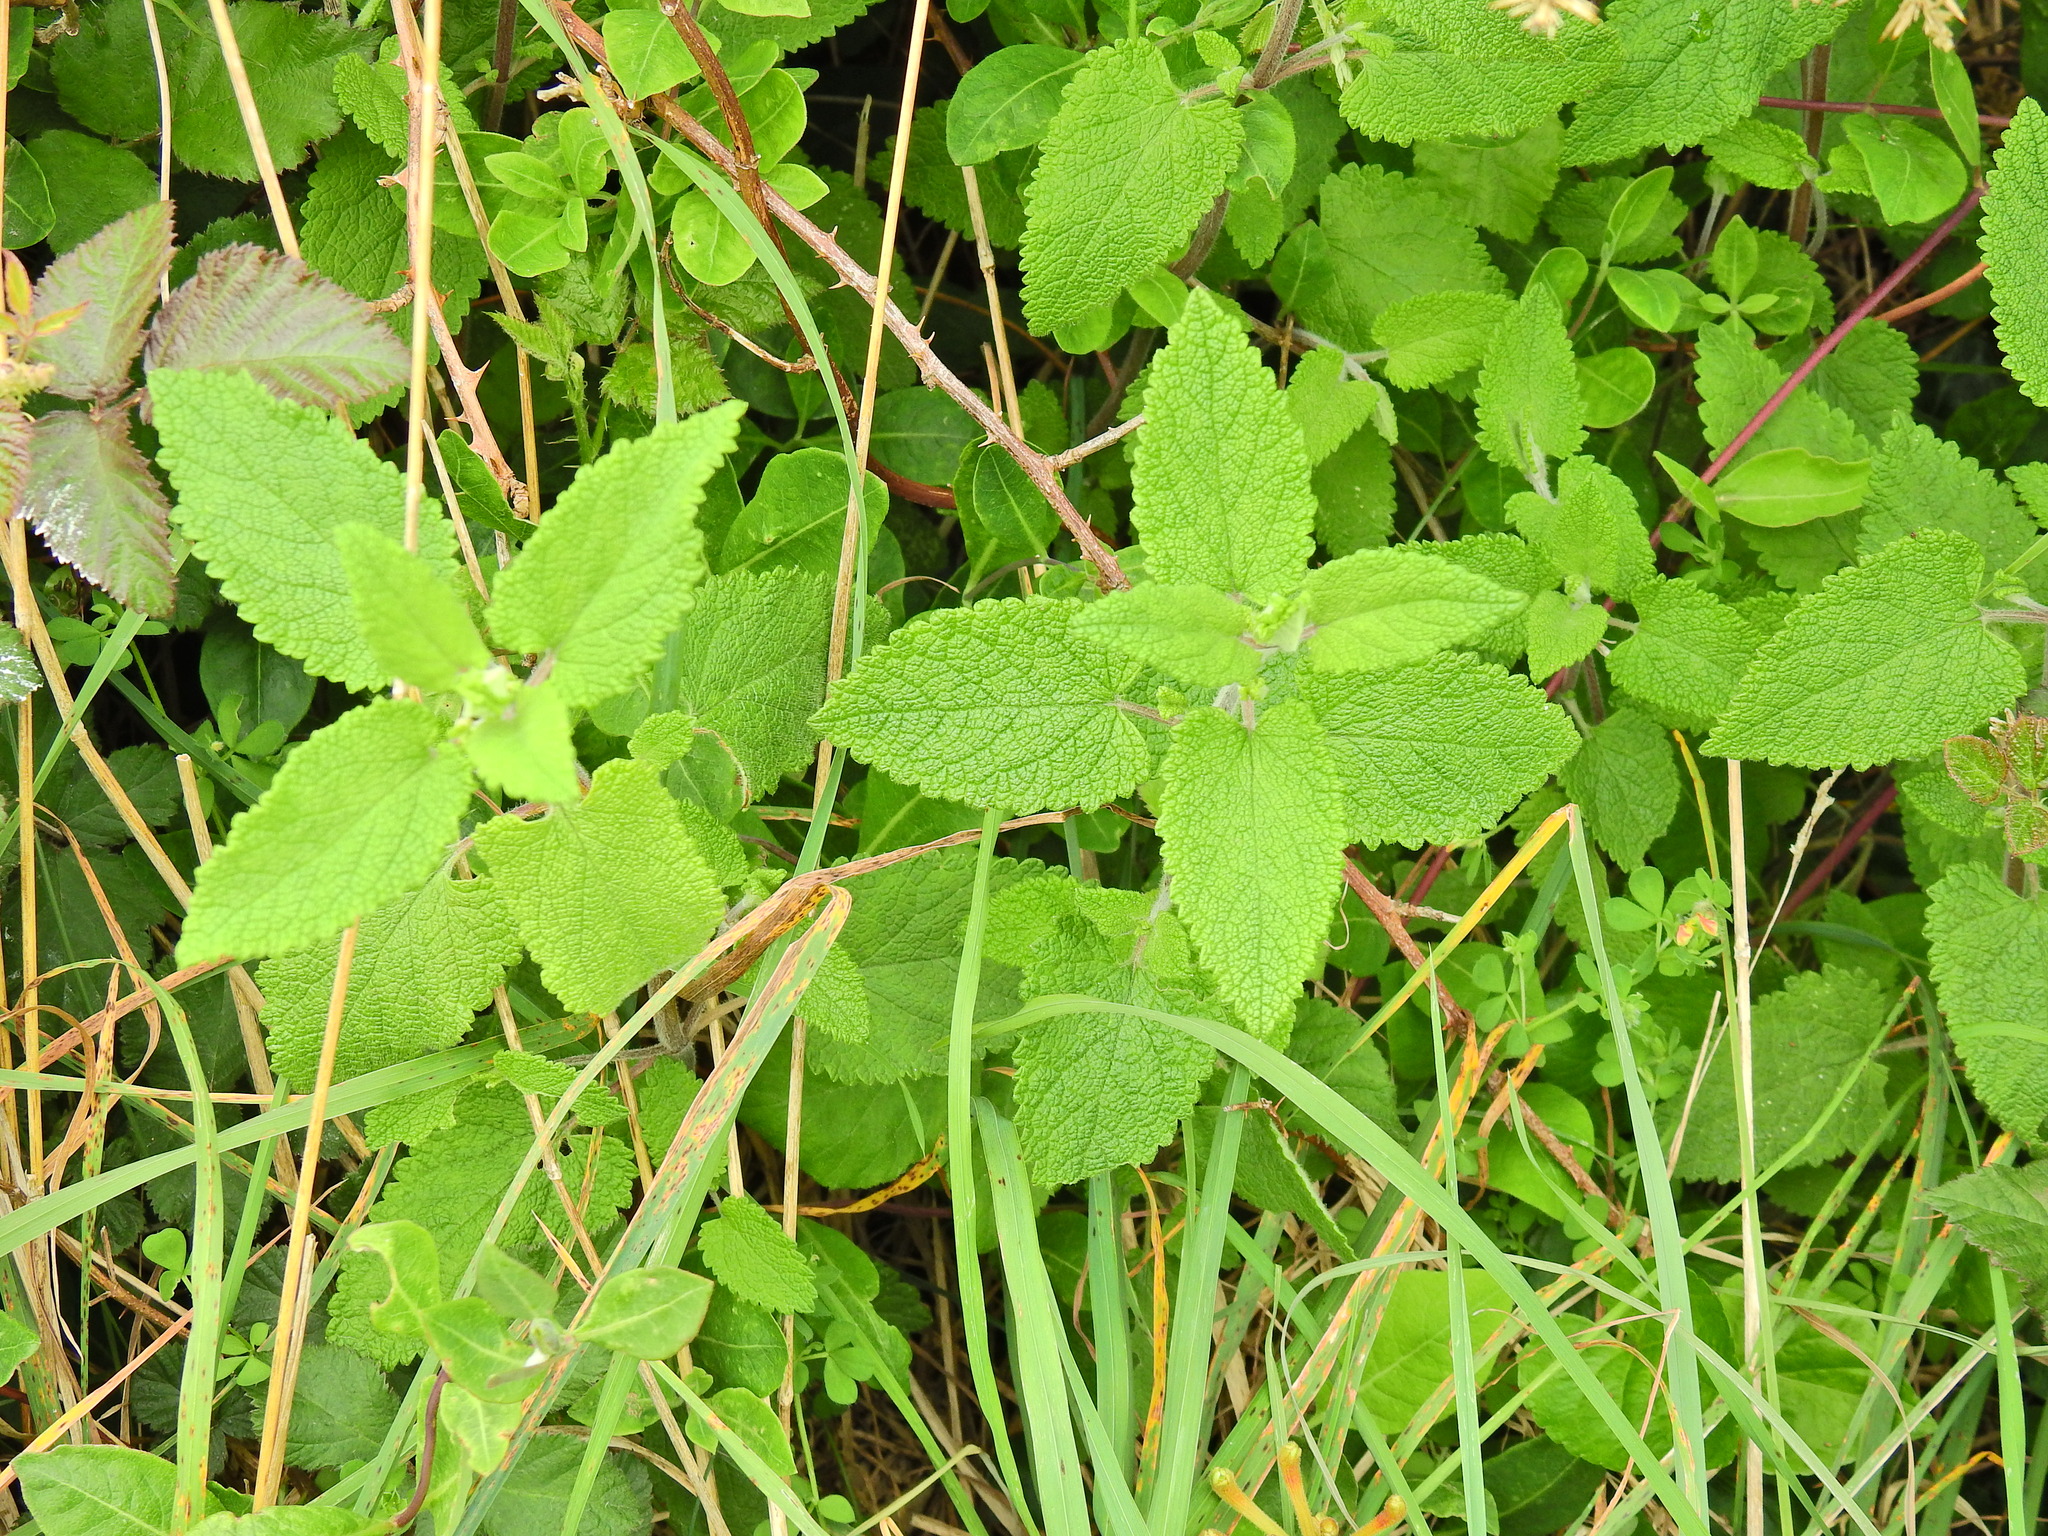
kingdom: Plantae
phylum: Tracheophyta
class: Magnoliopsida
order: Lamiales
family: Lamiaceae
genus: Teucrium
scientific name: Teucrium scorodonia
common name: Woodland germander
